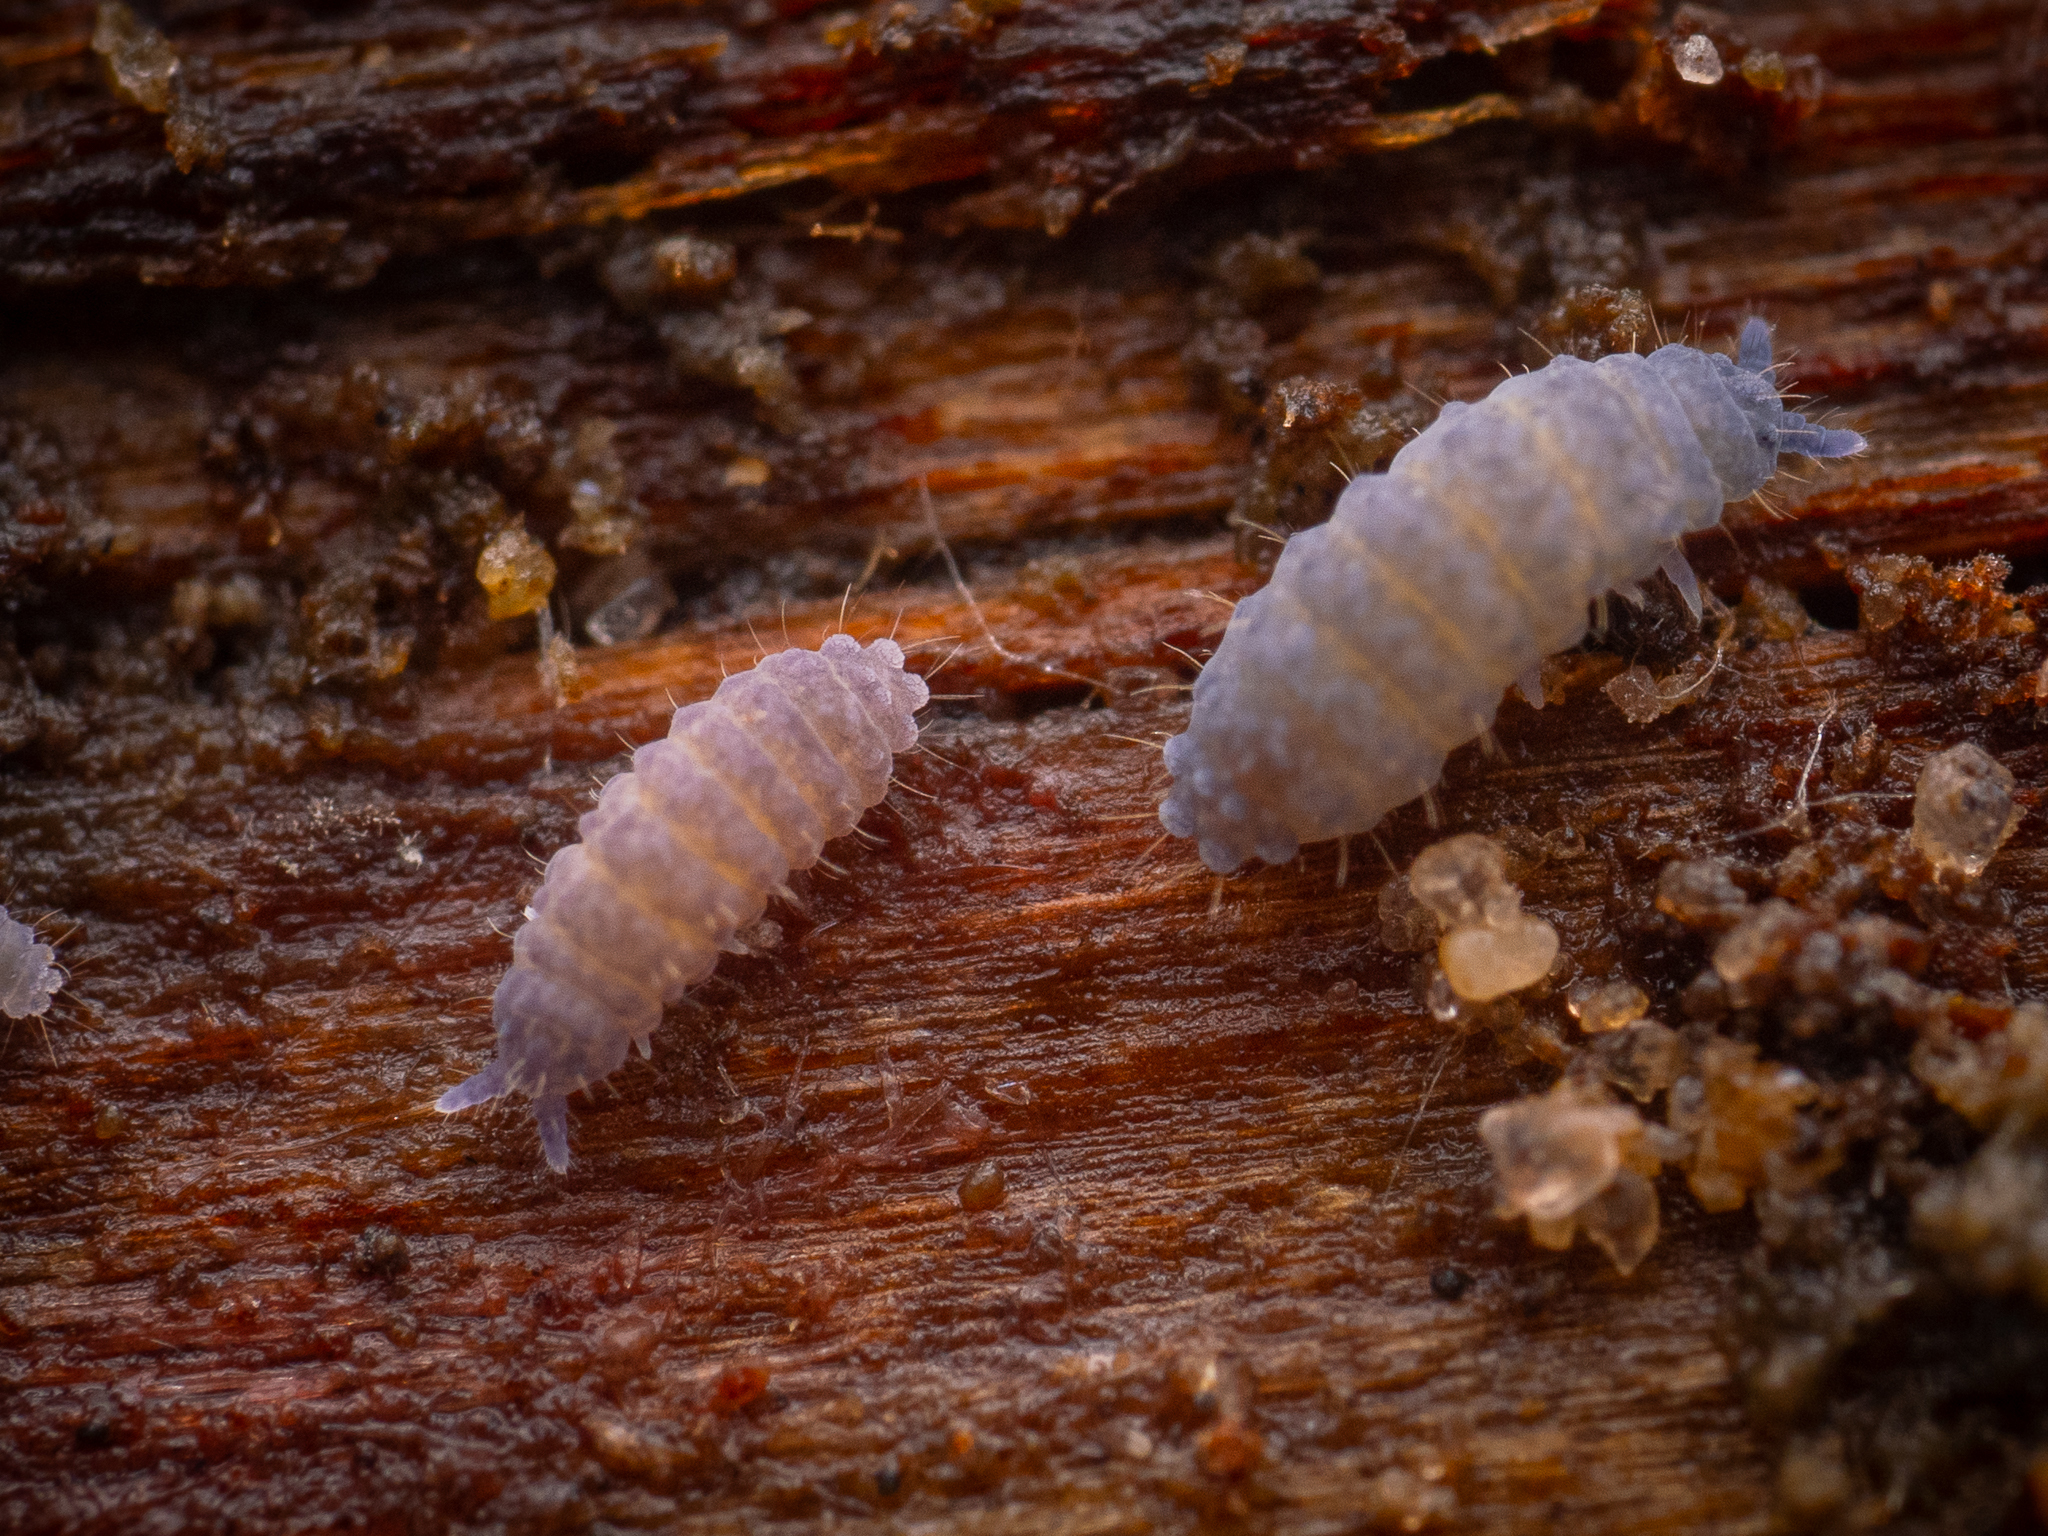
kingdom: Animalia
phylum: Arthropoda
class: Collembola
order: Poduromorpha
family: Neanuridae
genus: Neanura
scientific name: Neanura muscorum
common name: Springtail
